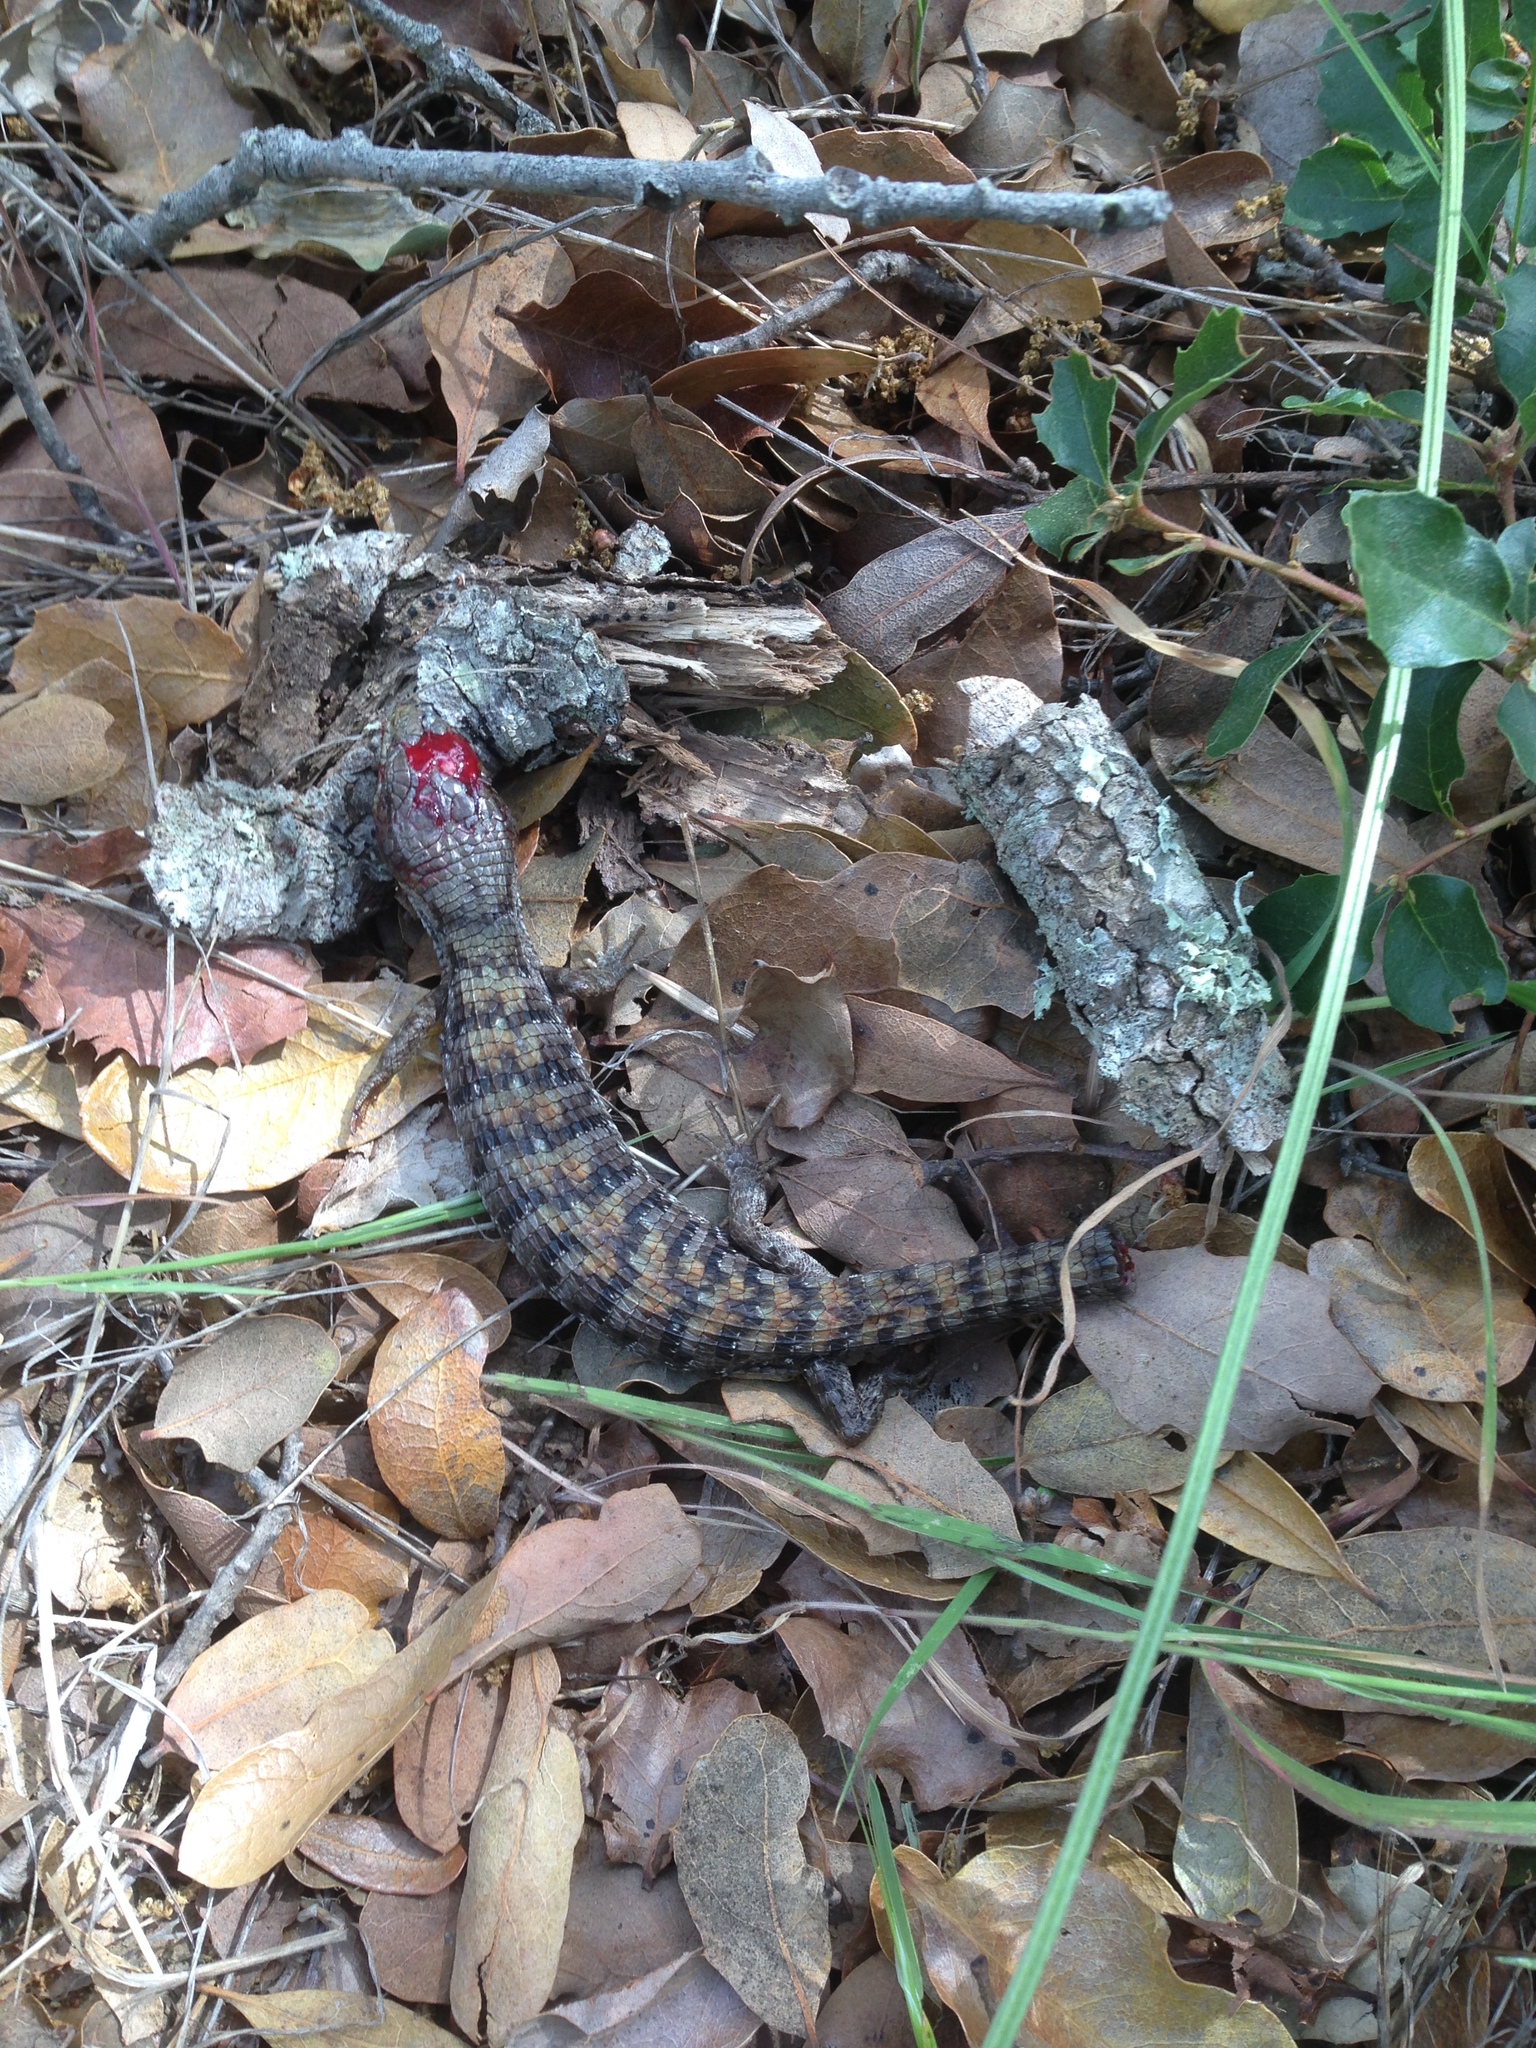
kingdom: Animalia
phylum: Chordata
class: Squamata
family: Anguidae
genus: Elgaria
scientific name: Elgaria multicarinata
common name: Southern alligator lizard
